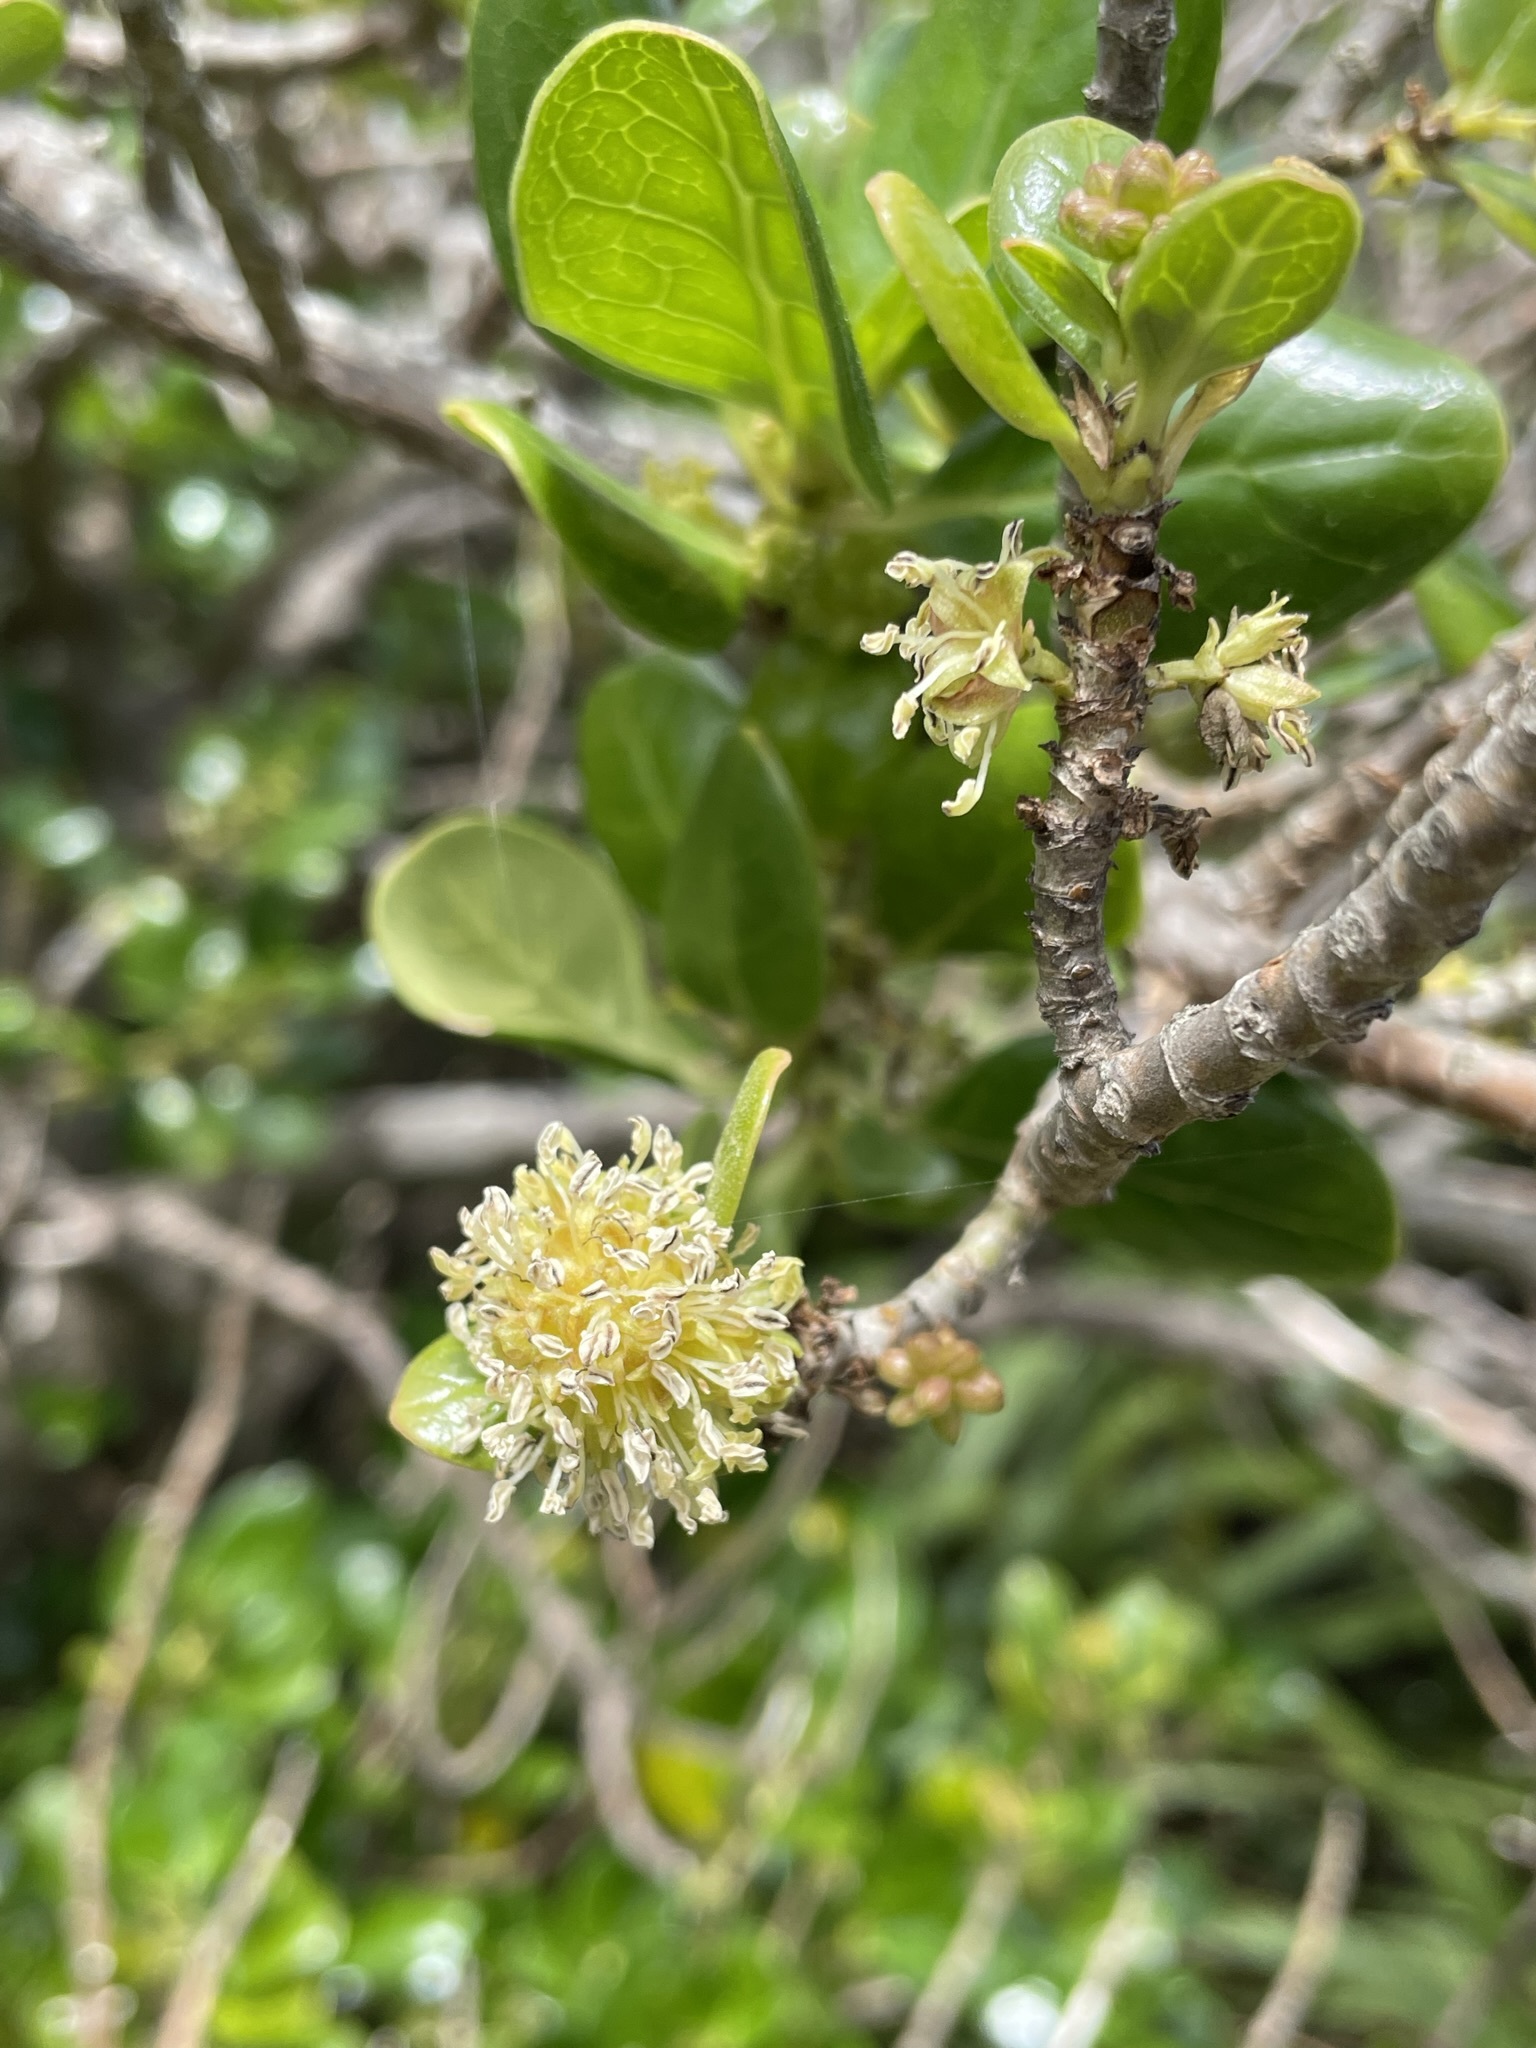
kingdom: Plantae
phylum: Tracheophyta
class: Magnoliopsida
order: Gentianales
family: Rubiaceae
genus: Coprosma
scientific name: Coprosma repens
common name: Tree bedstraw
